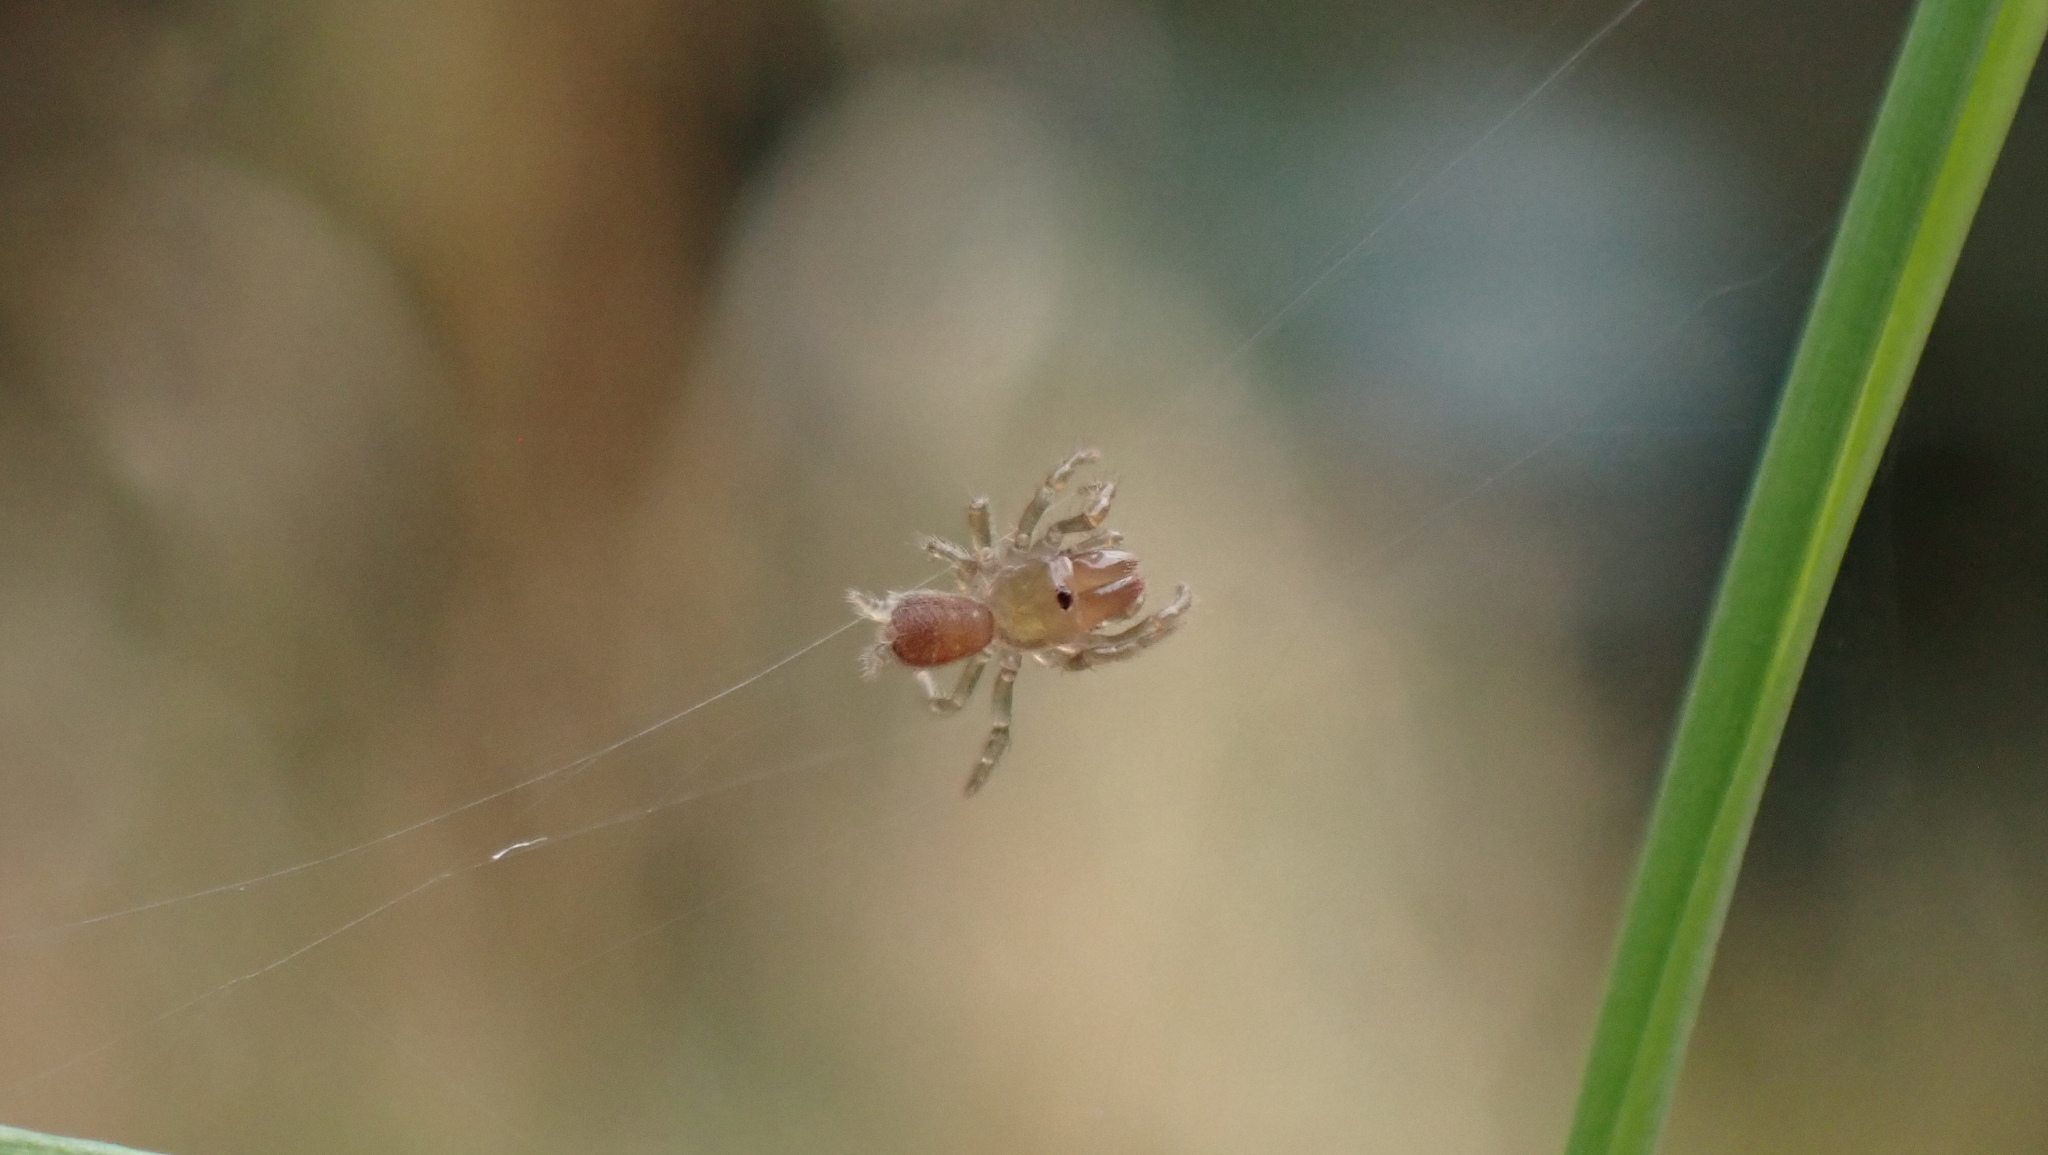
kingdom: Animalia
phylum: Arthropoda
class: Arachnida
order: Araneae
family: Atypidae
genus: Atypus
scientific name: Atypus affinis
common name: Purse web spider
